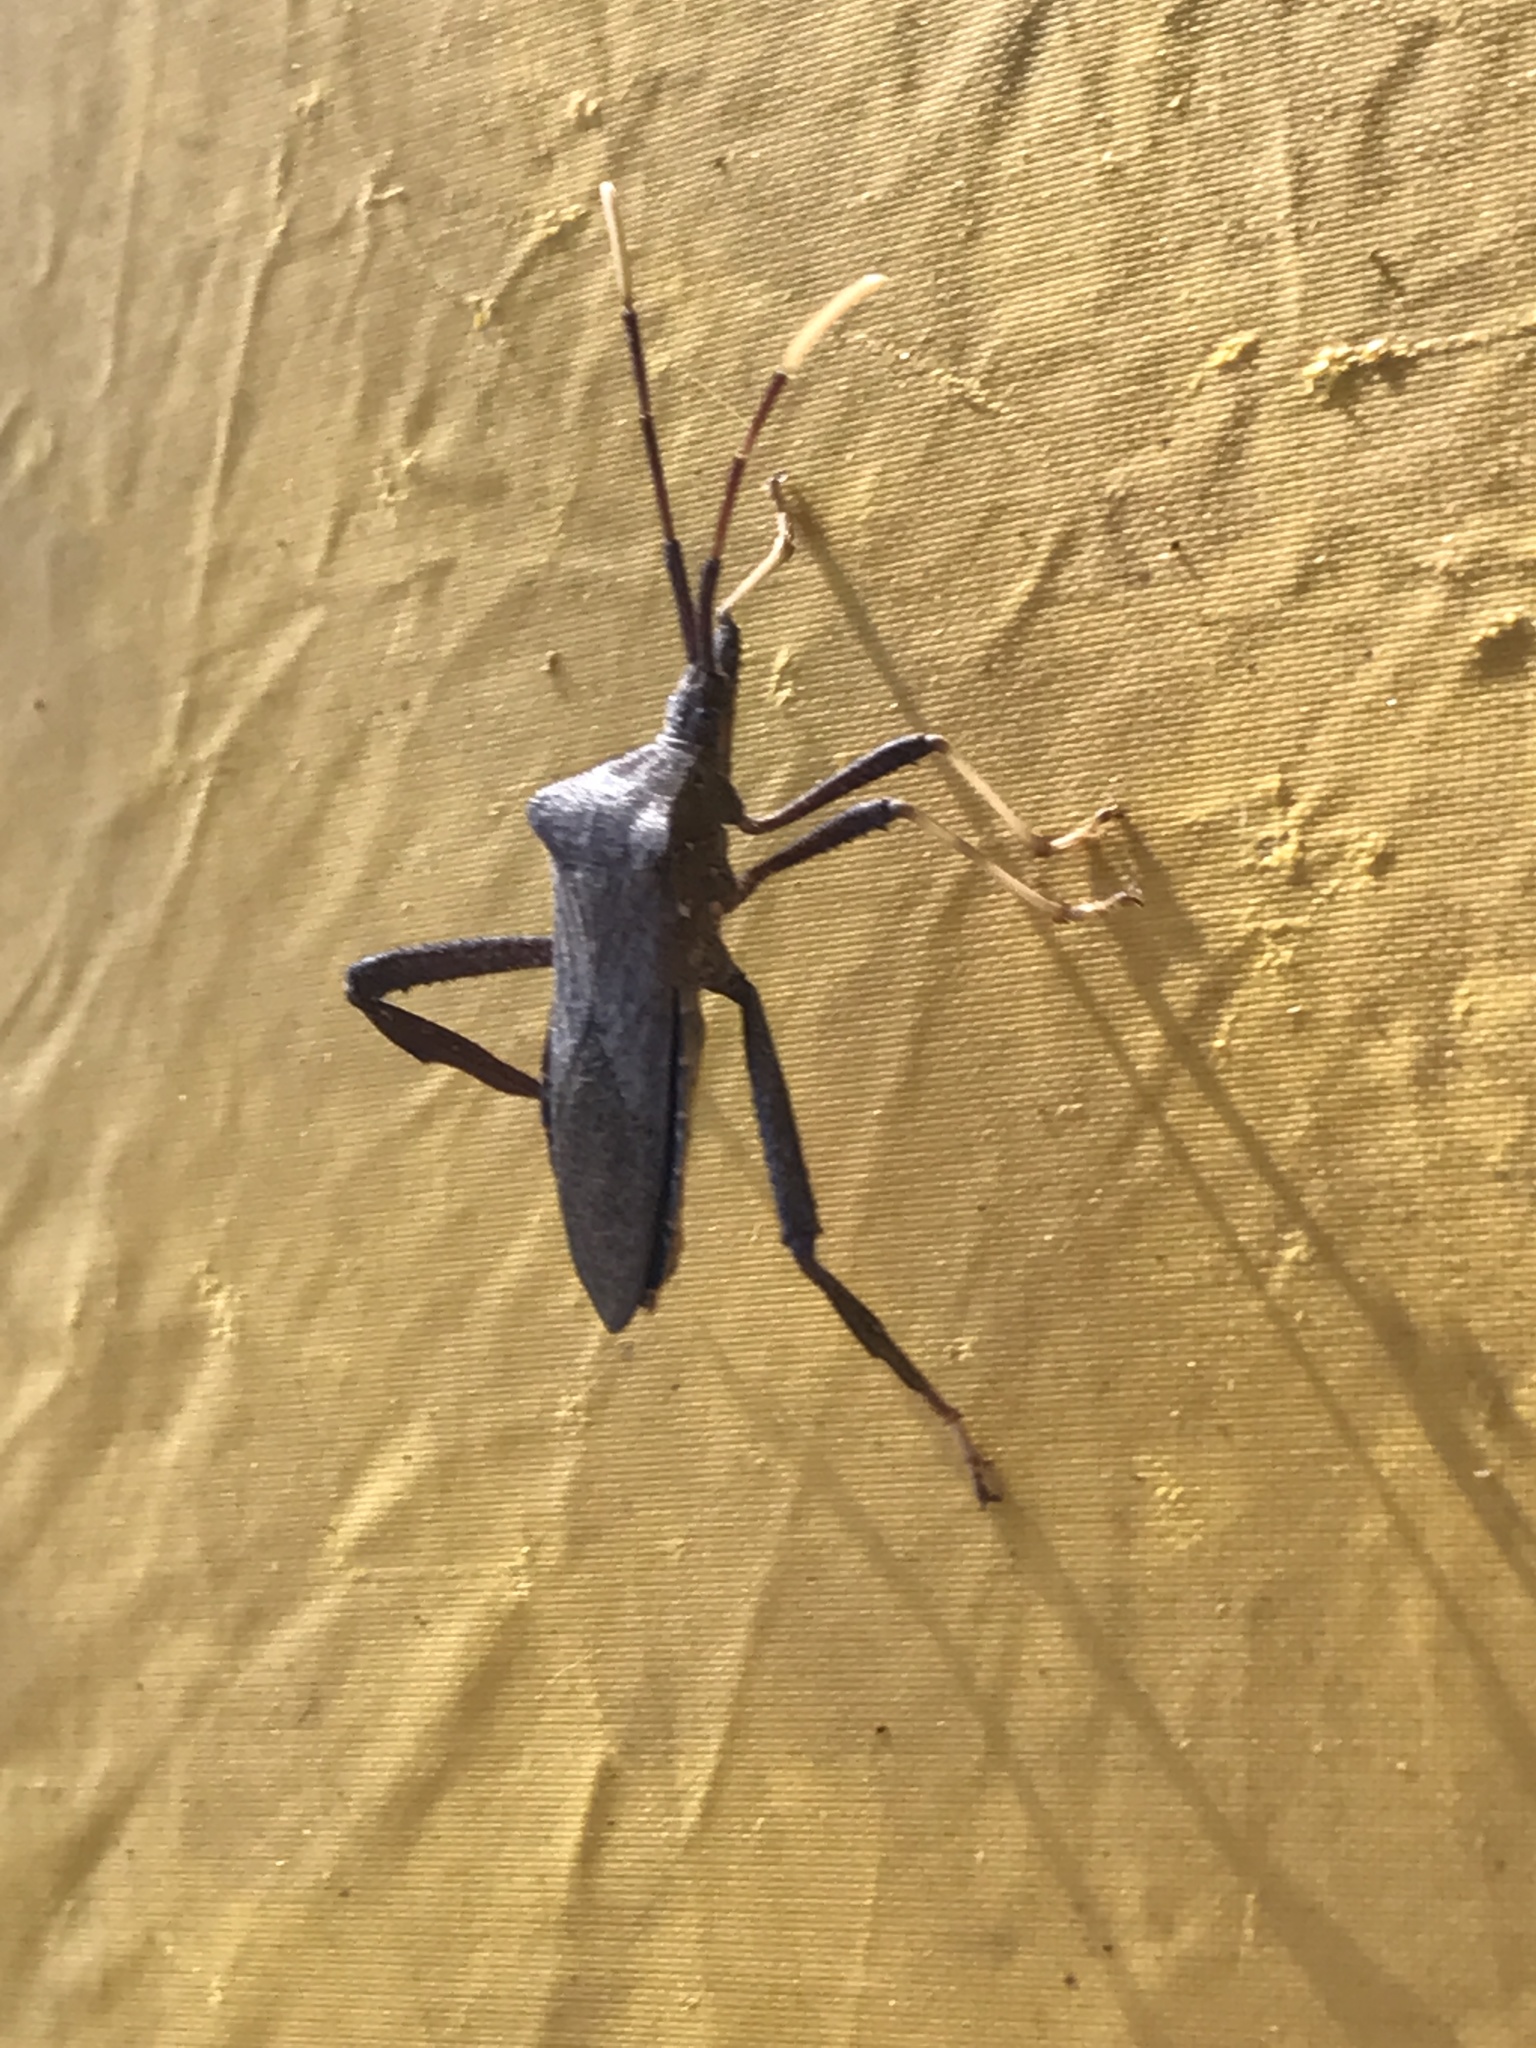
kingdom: Animalia
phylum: Arthropoda
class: Insecta
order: Hemiptera
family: Coreidae
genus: Acanthocephala
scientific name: Acanthocephala terminalis
